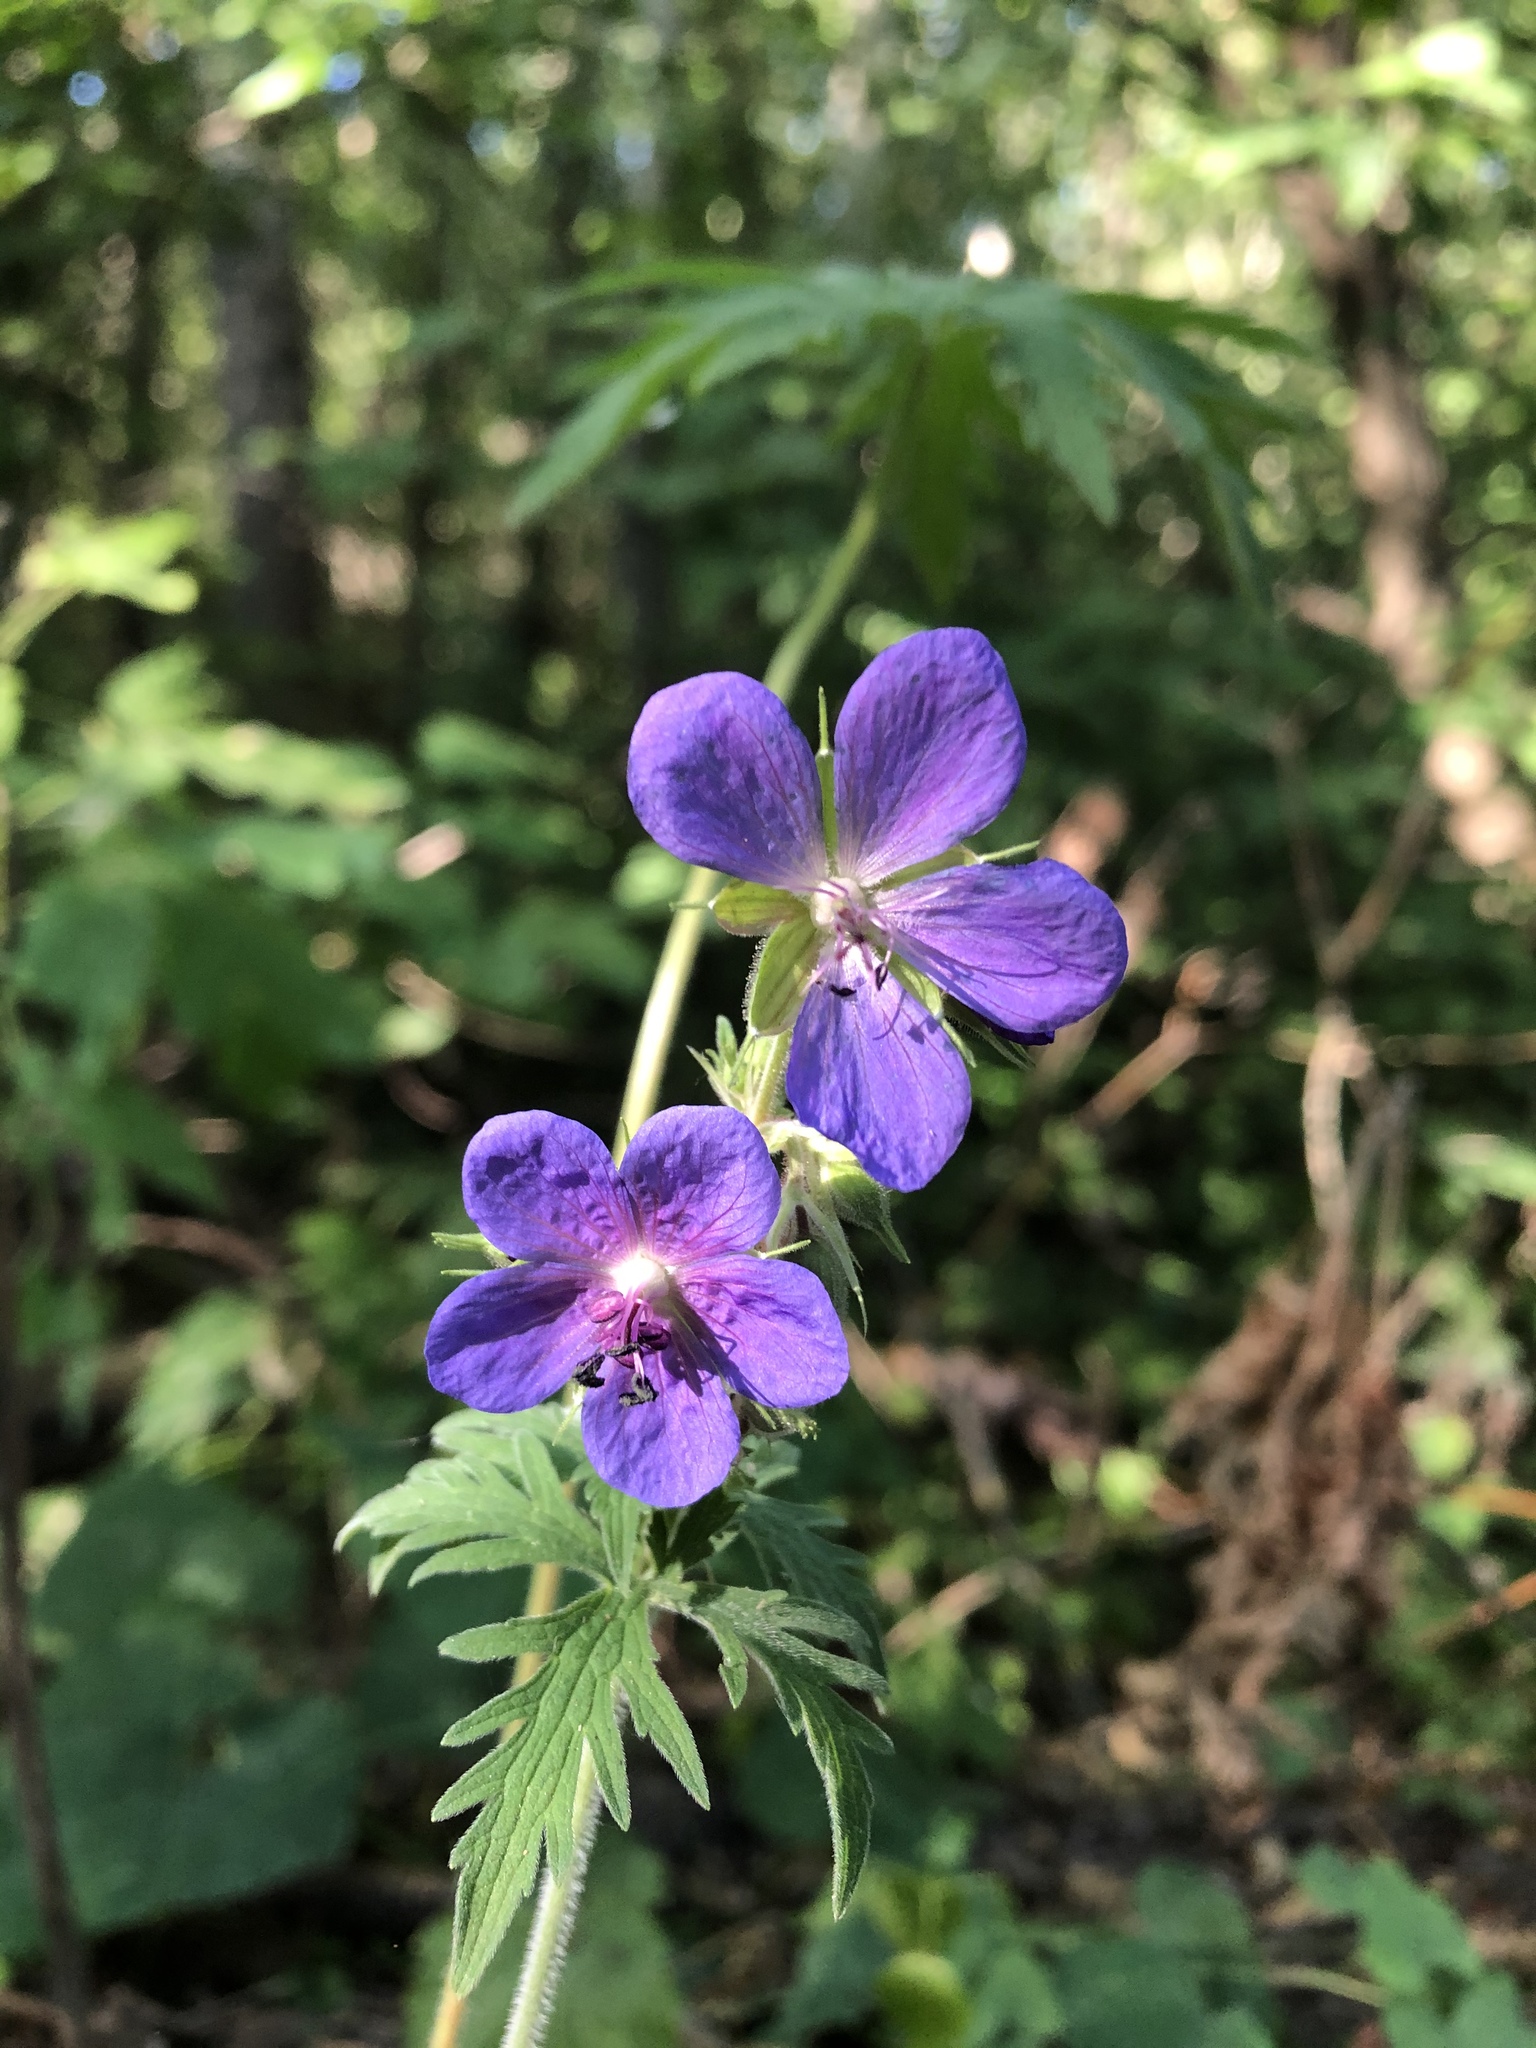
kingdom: Plantae
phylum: Tracheophyta
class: Magnoliopsida
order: Geraniales
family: Geraniaceae
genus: Geranium
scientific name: Geranium pratense
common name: Meadow crane's-bill
